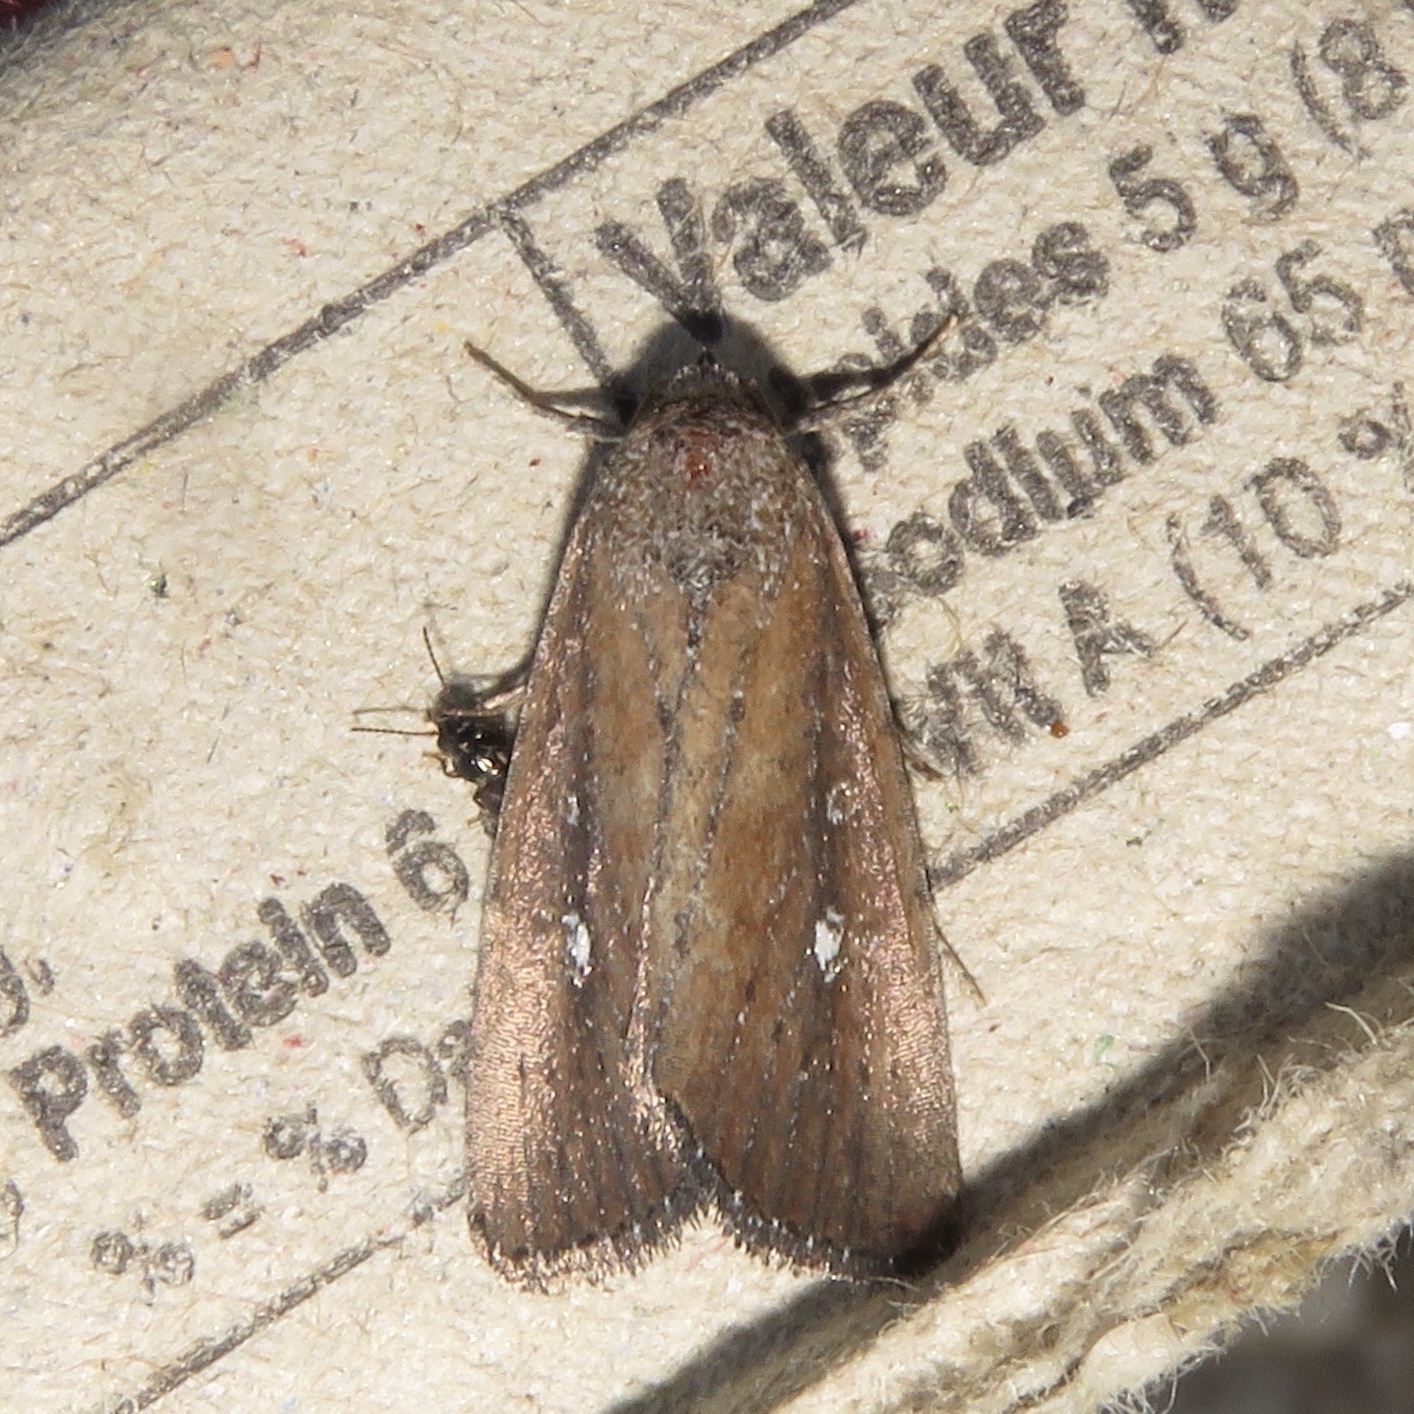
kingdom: Animalia
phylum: Arthropoda
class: Insecta
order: Lepidoptera
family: Noctuidae
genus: Condica
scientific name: Condica videns
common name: White-dotted groundling
